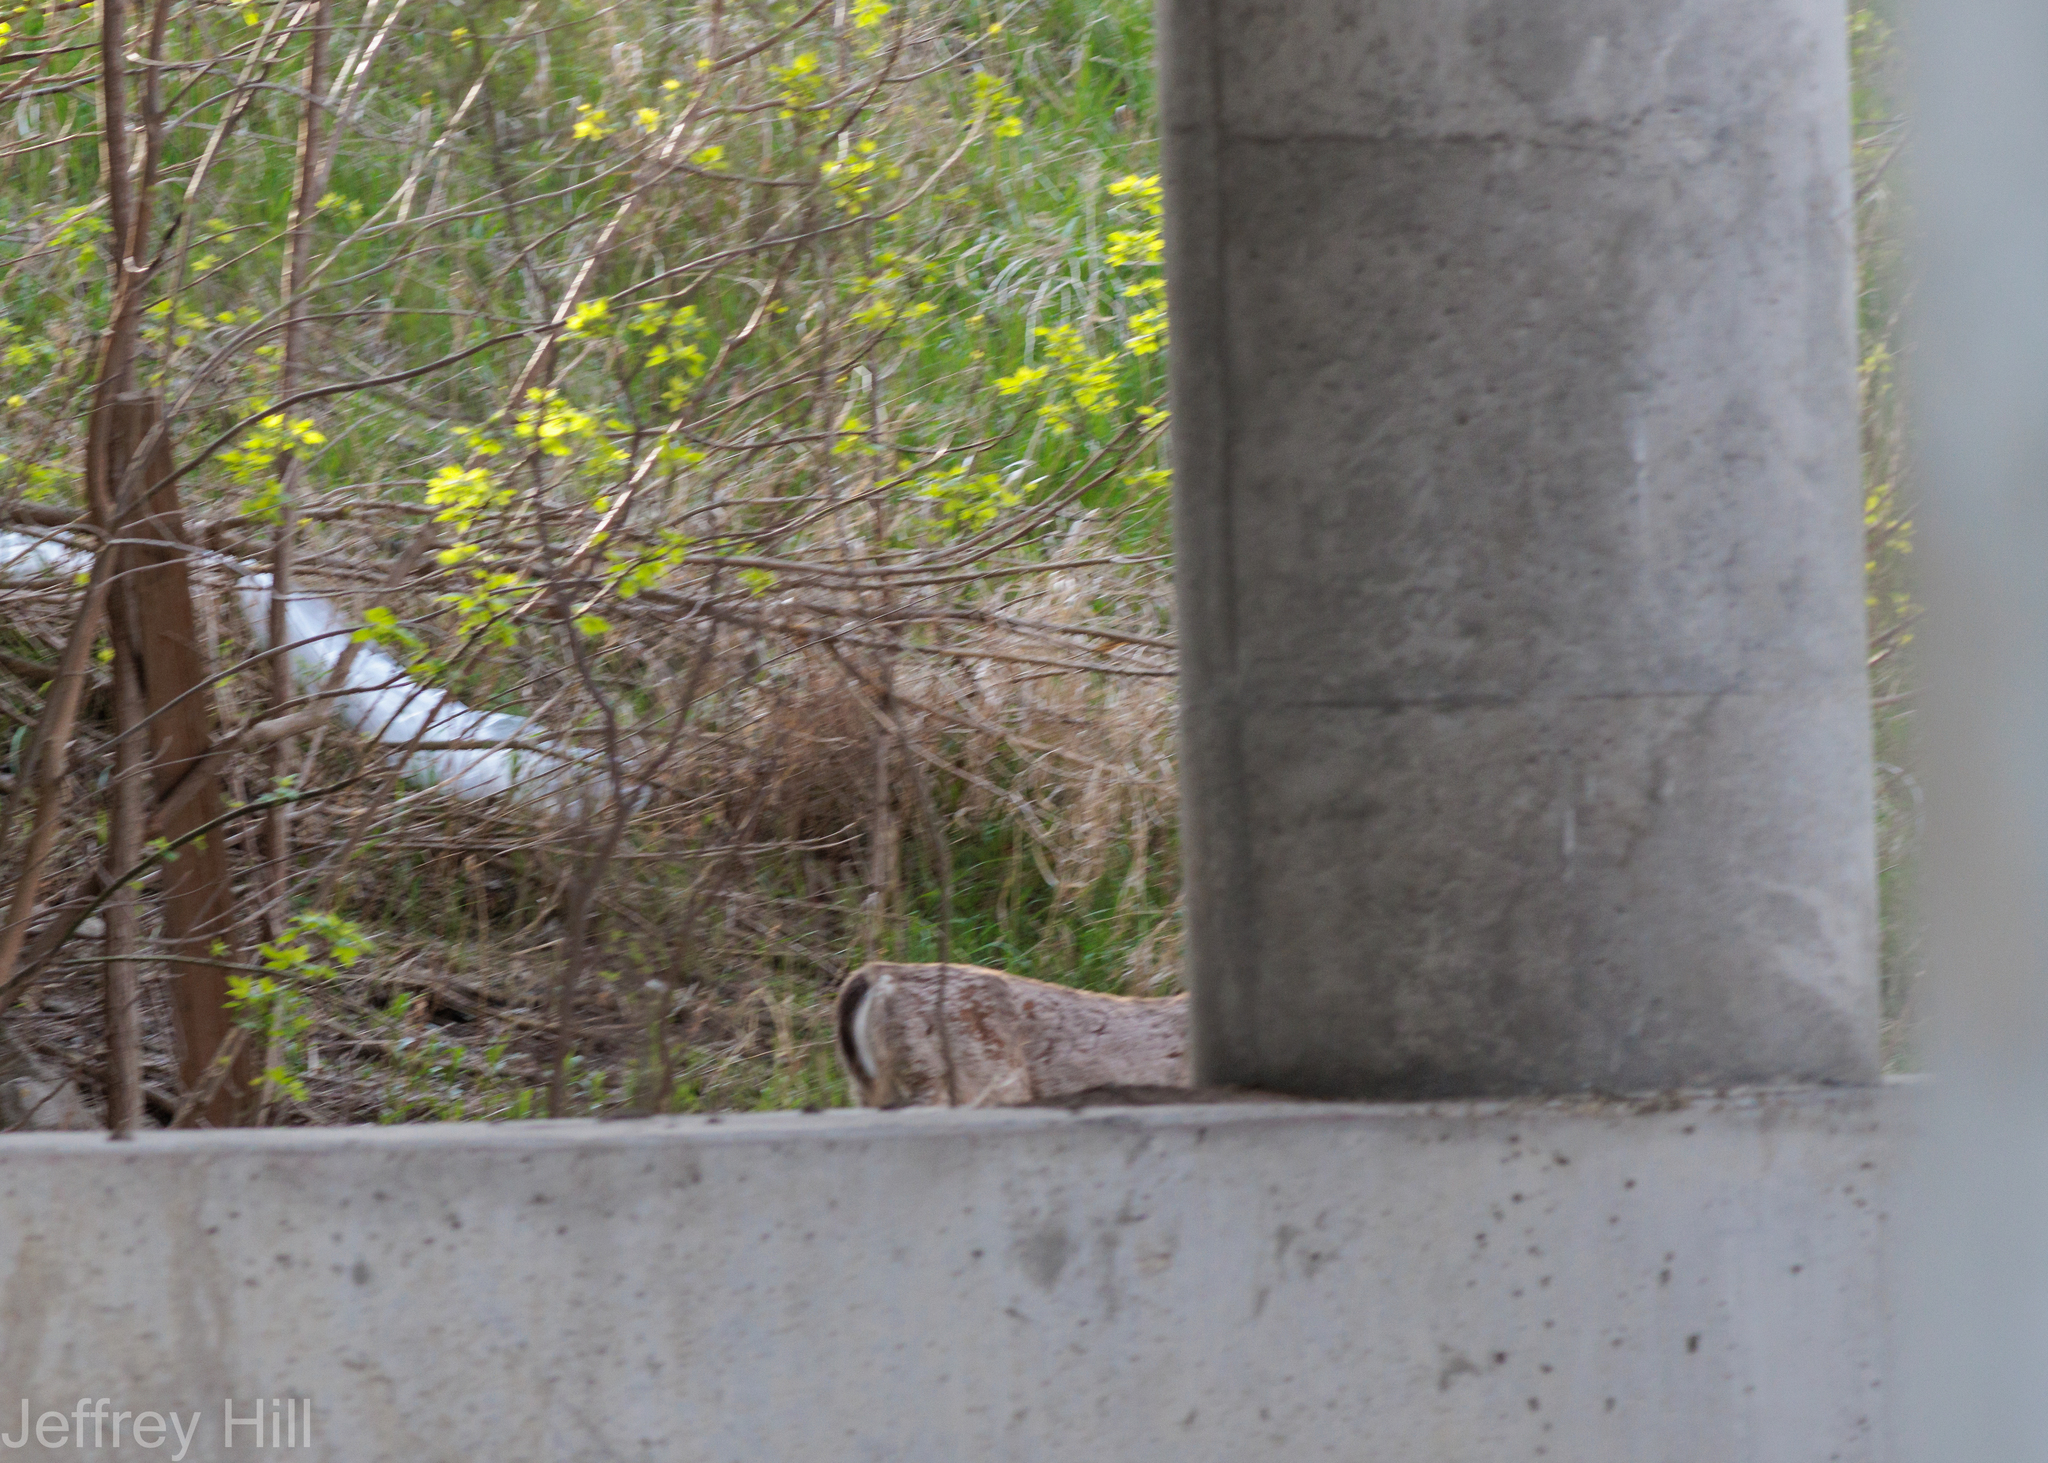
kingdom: Animalia
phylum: Chordata
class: Mammalia
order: Artiodactyla
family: Cervidae
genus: Odocoileus
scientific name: Odocoileus virginianus
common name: White-tailed deer
